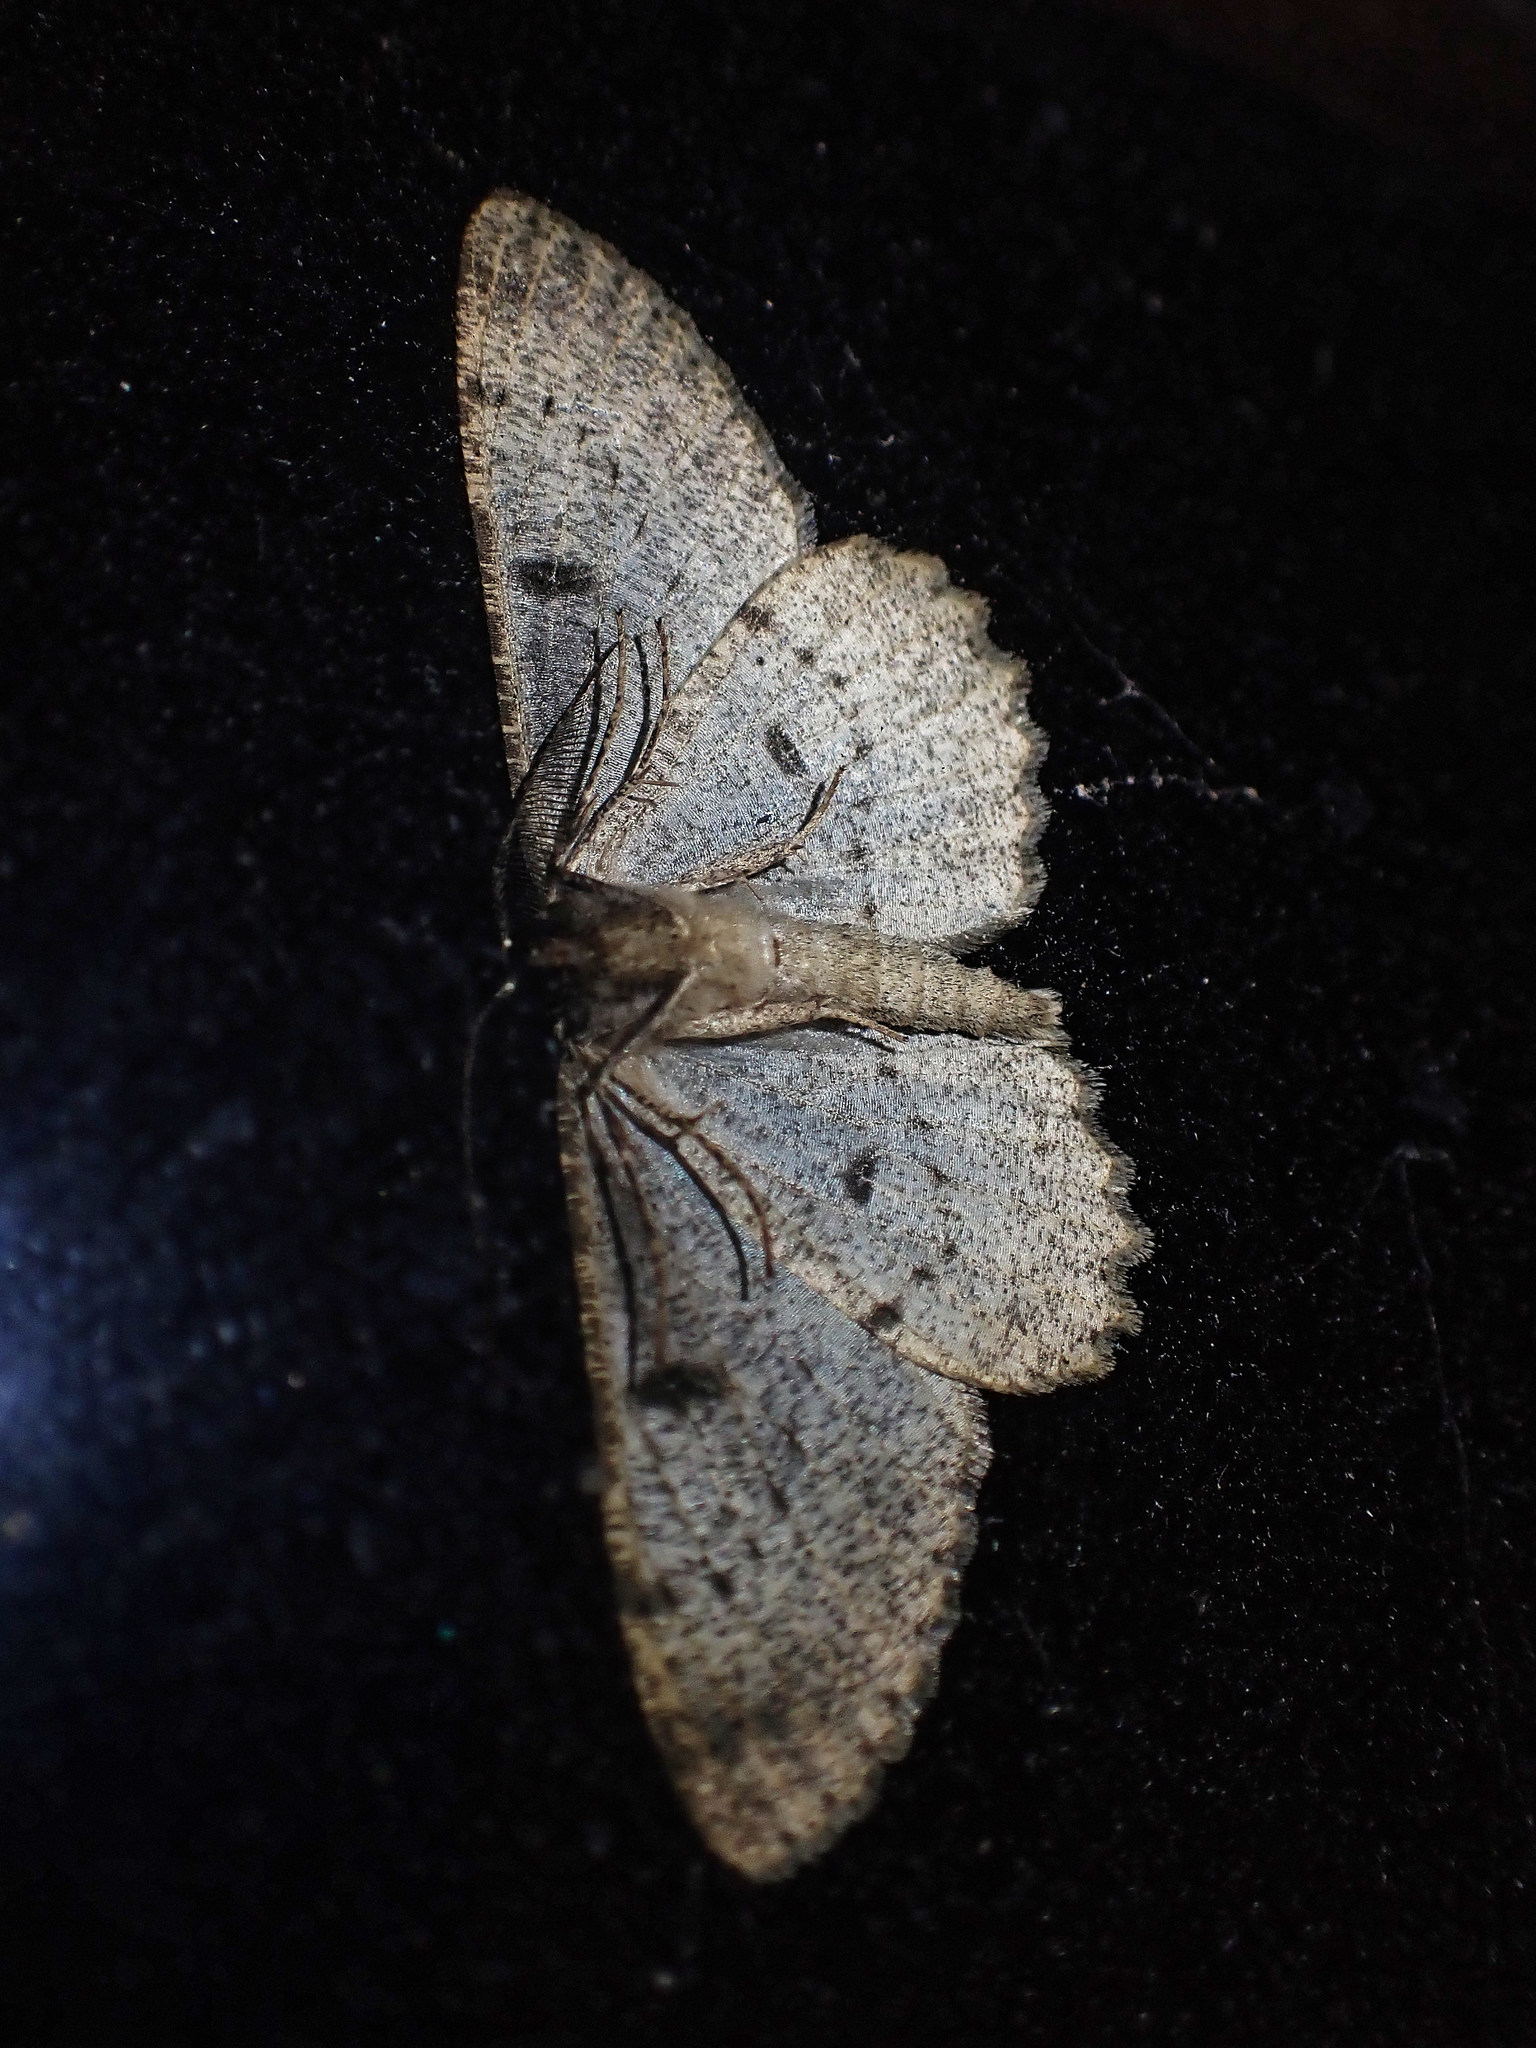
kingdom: Animalia
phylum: Arthropoda
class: Insecta
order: Lepidoptera
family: Geometridae
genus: Hypomecis
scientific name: Hypomecis punctinalis
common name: Pale oak beauty
